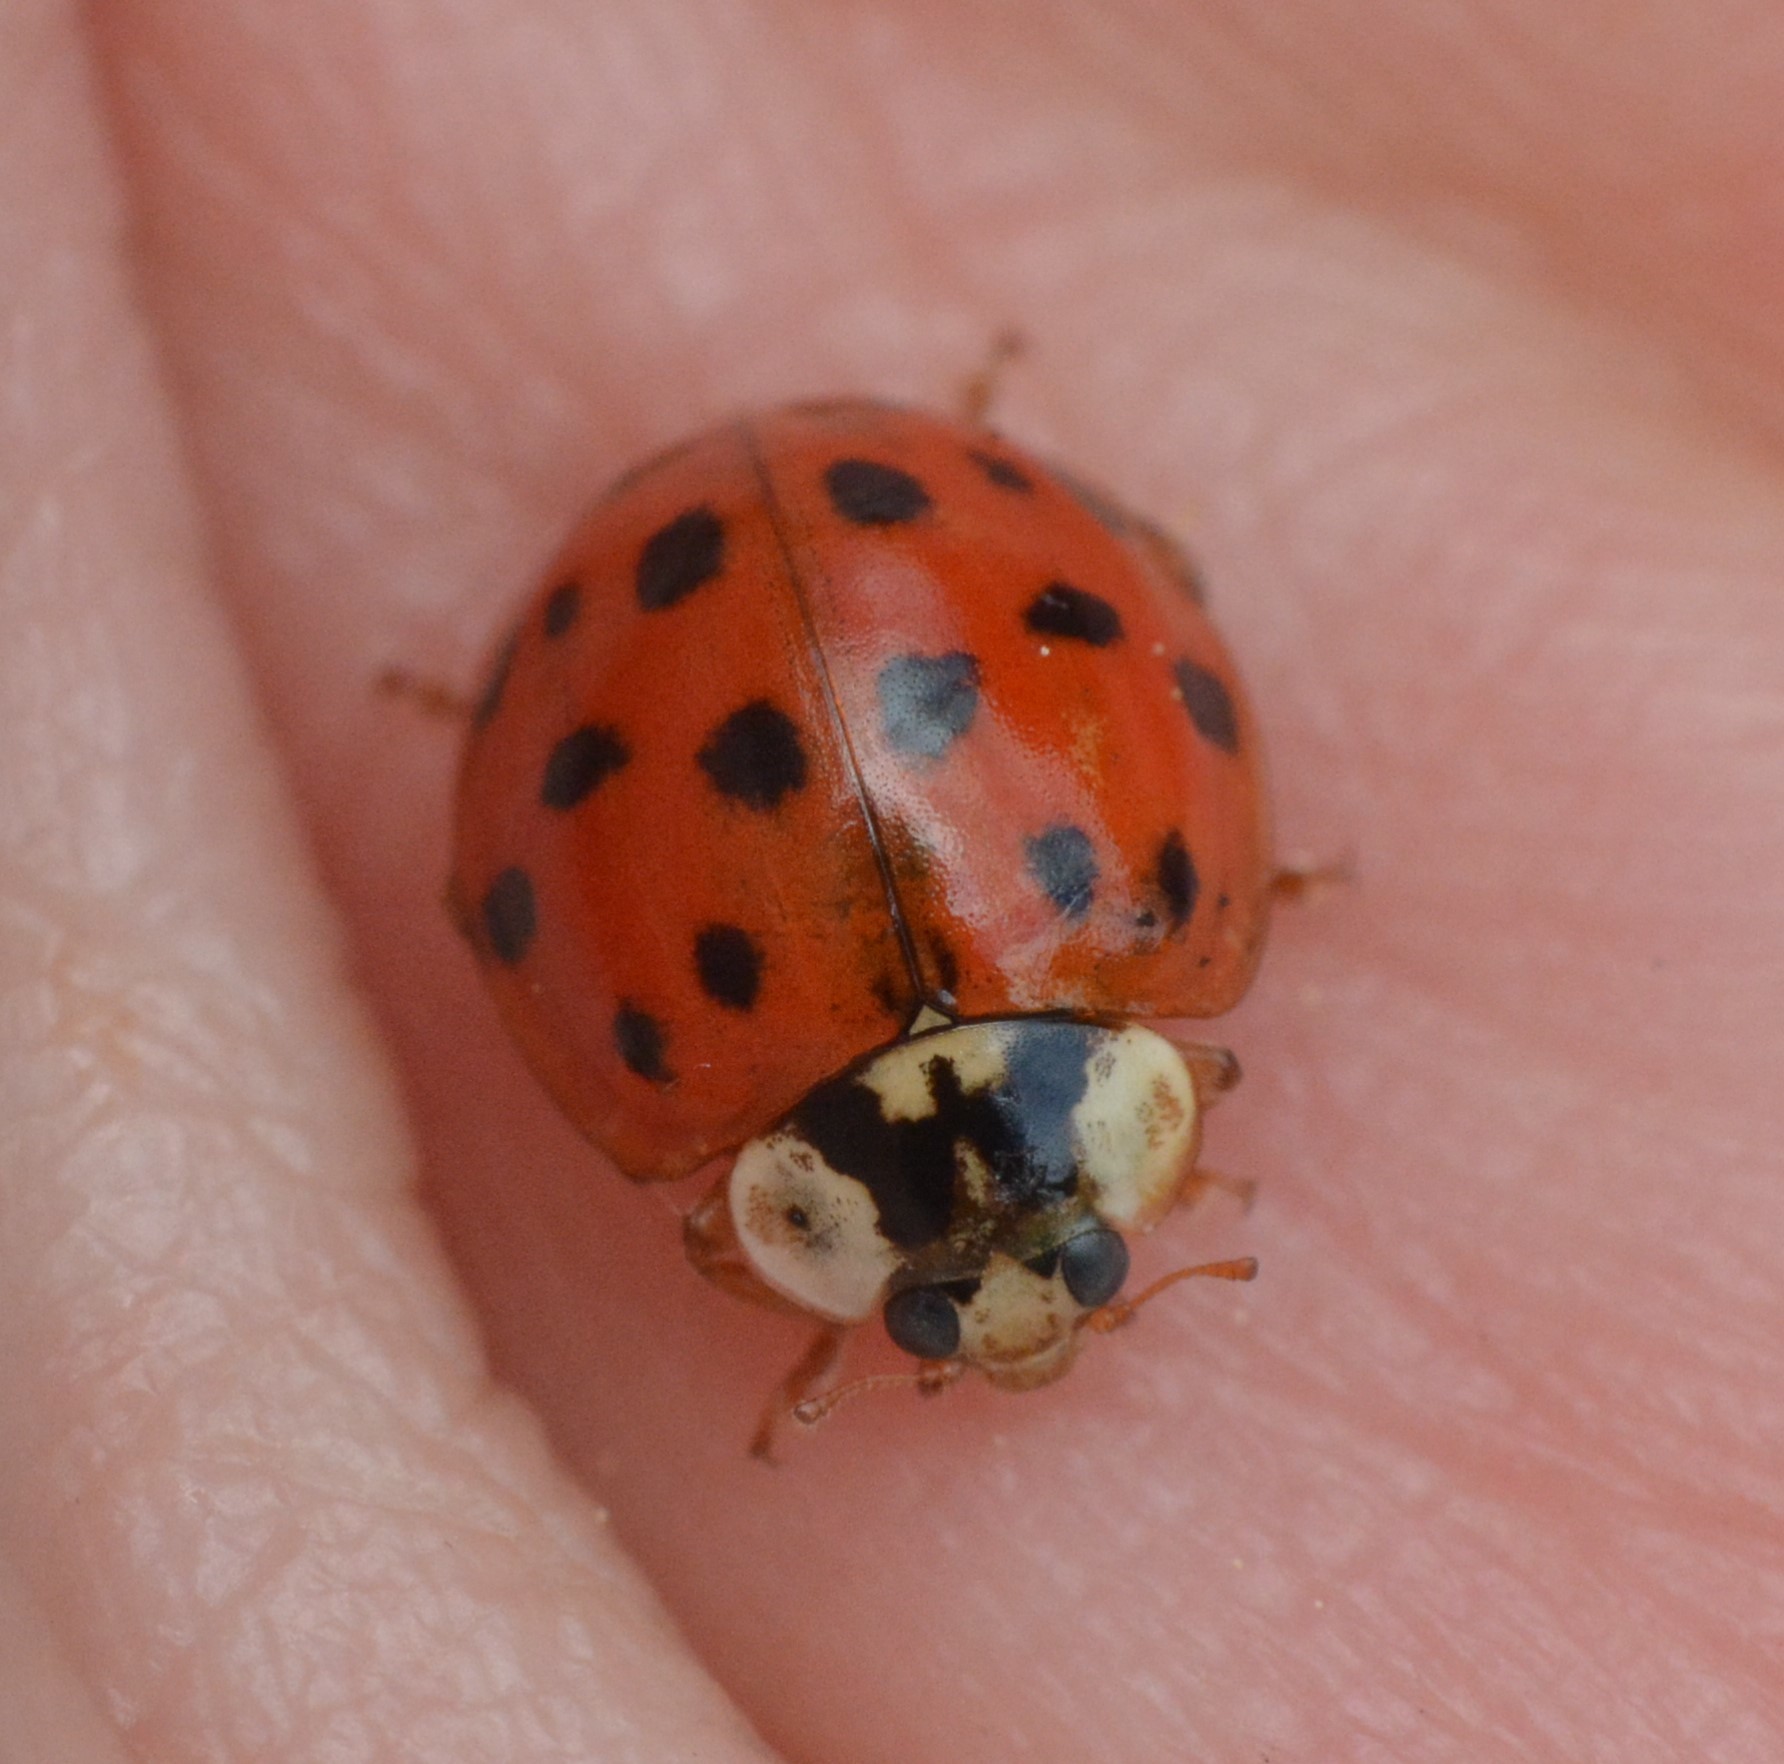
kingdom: Animalia
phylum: Arthropoda
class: Insecta
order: Coleoptera
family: Coccinellidae
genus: Harmonia
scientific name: Harmonia axyridis
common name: Harlequin ladybird
